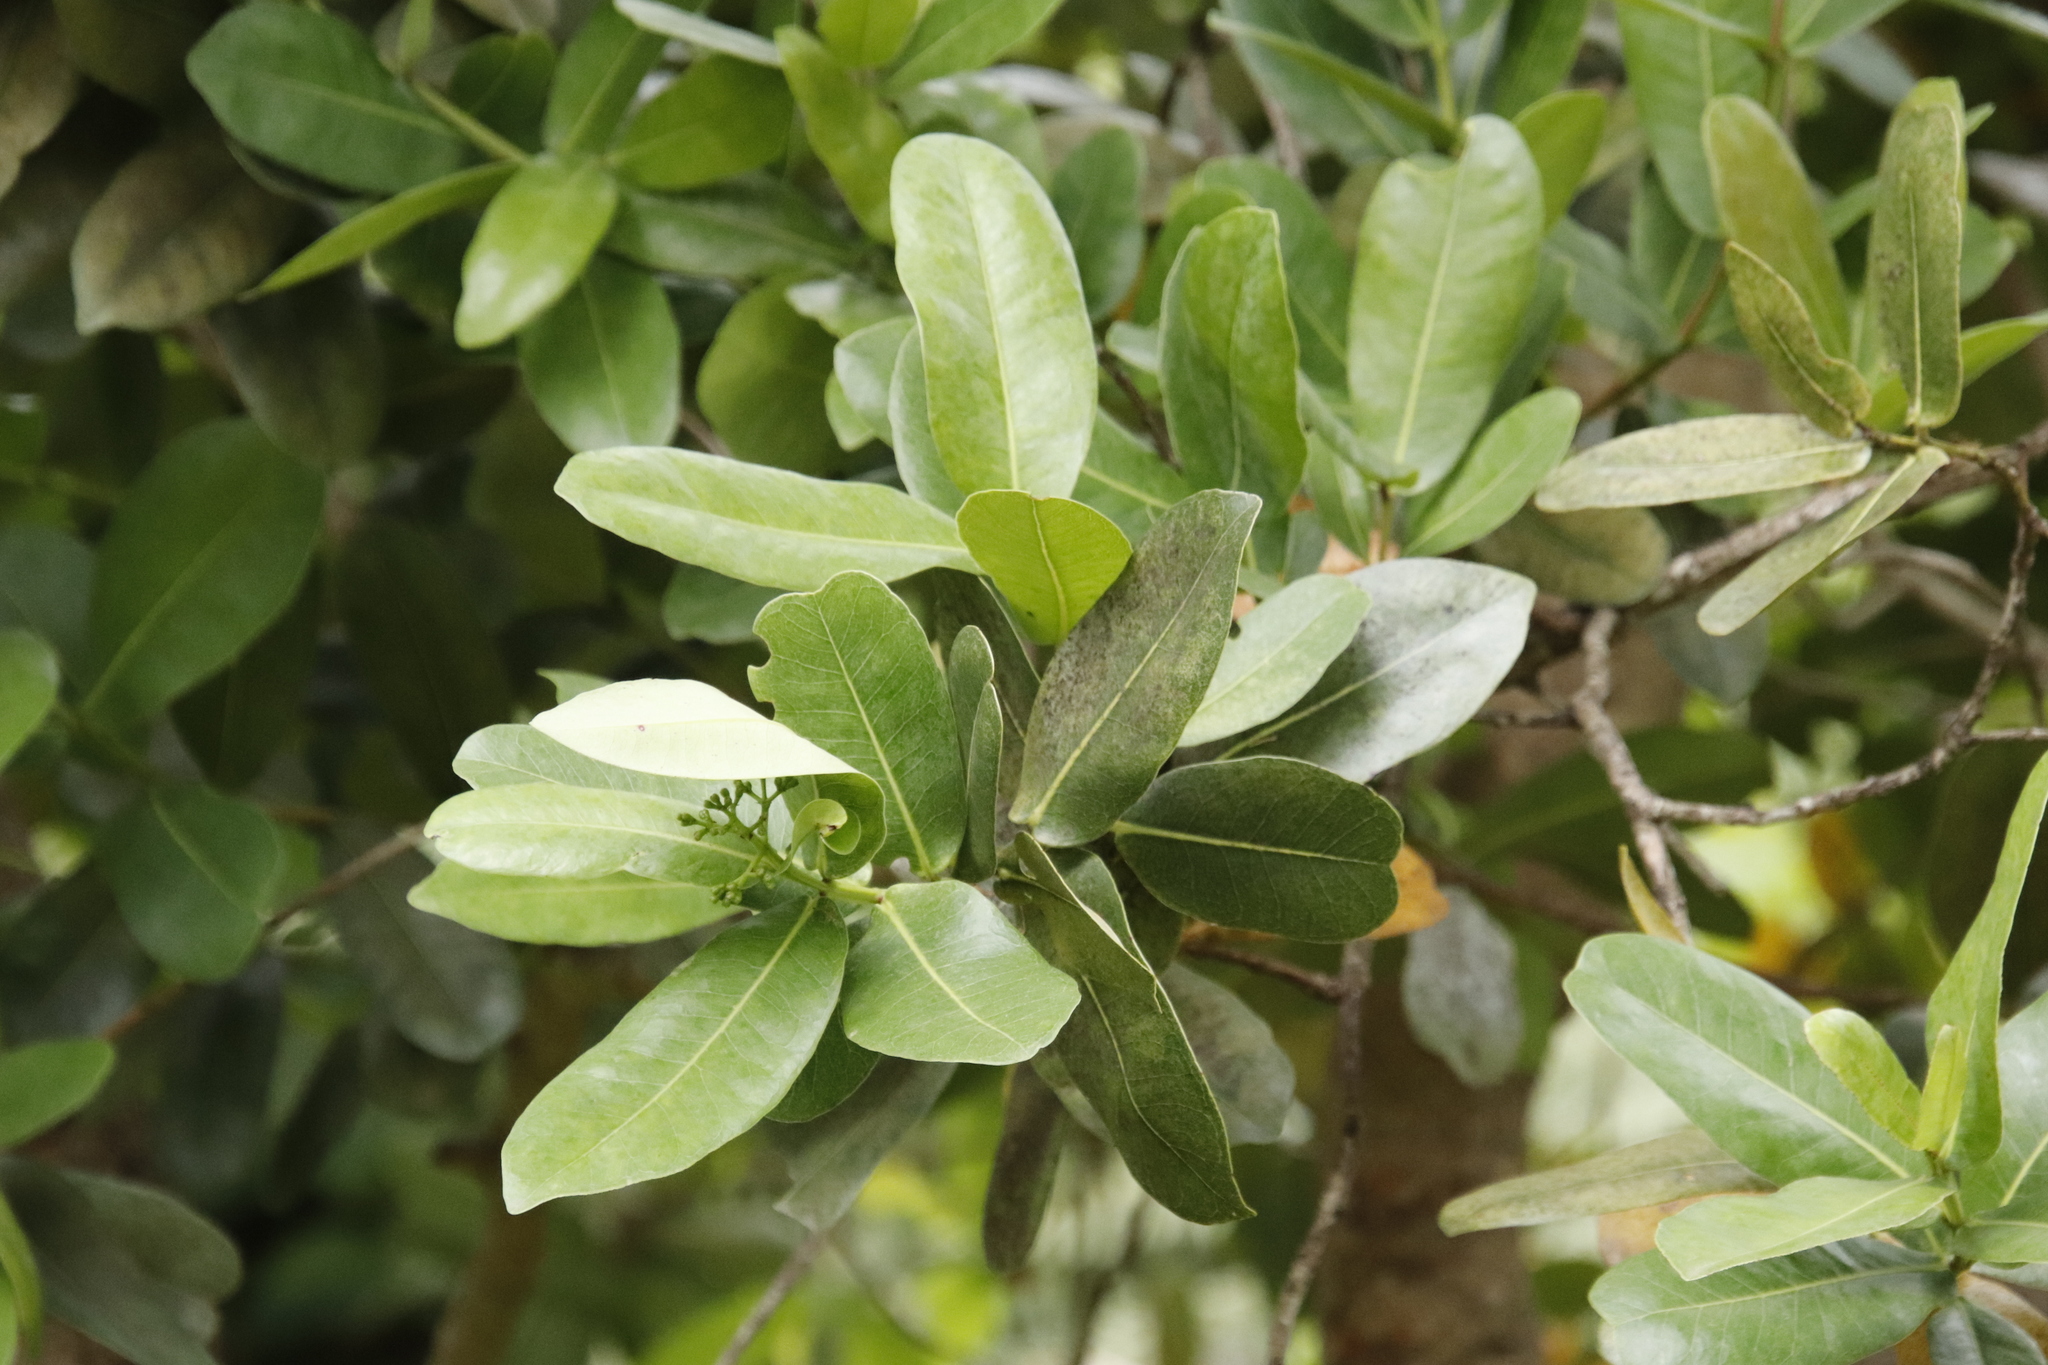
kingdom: Plantae
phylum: Tracheophyta
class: Magnoliopsida
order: Myrtales
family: Myrtaceae
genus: Syzygium
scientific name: Syzygium cordatum
